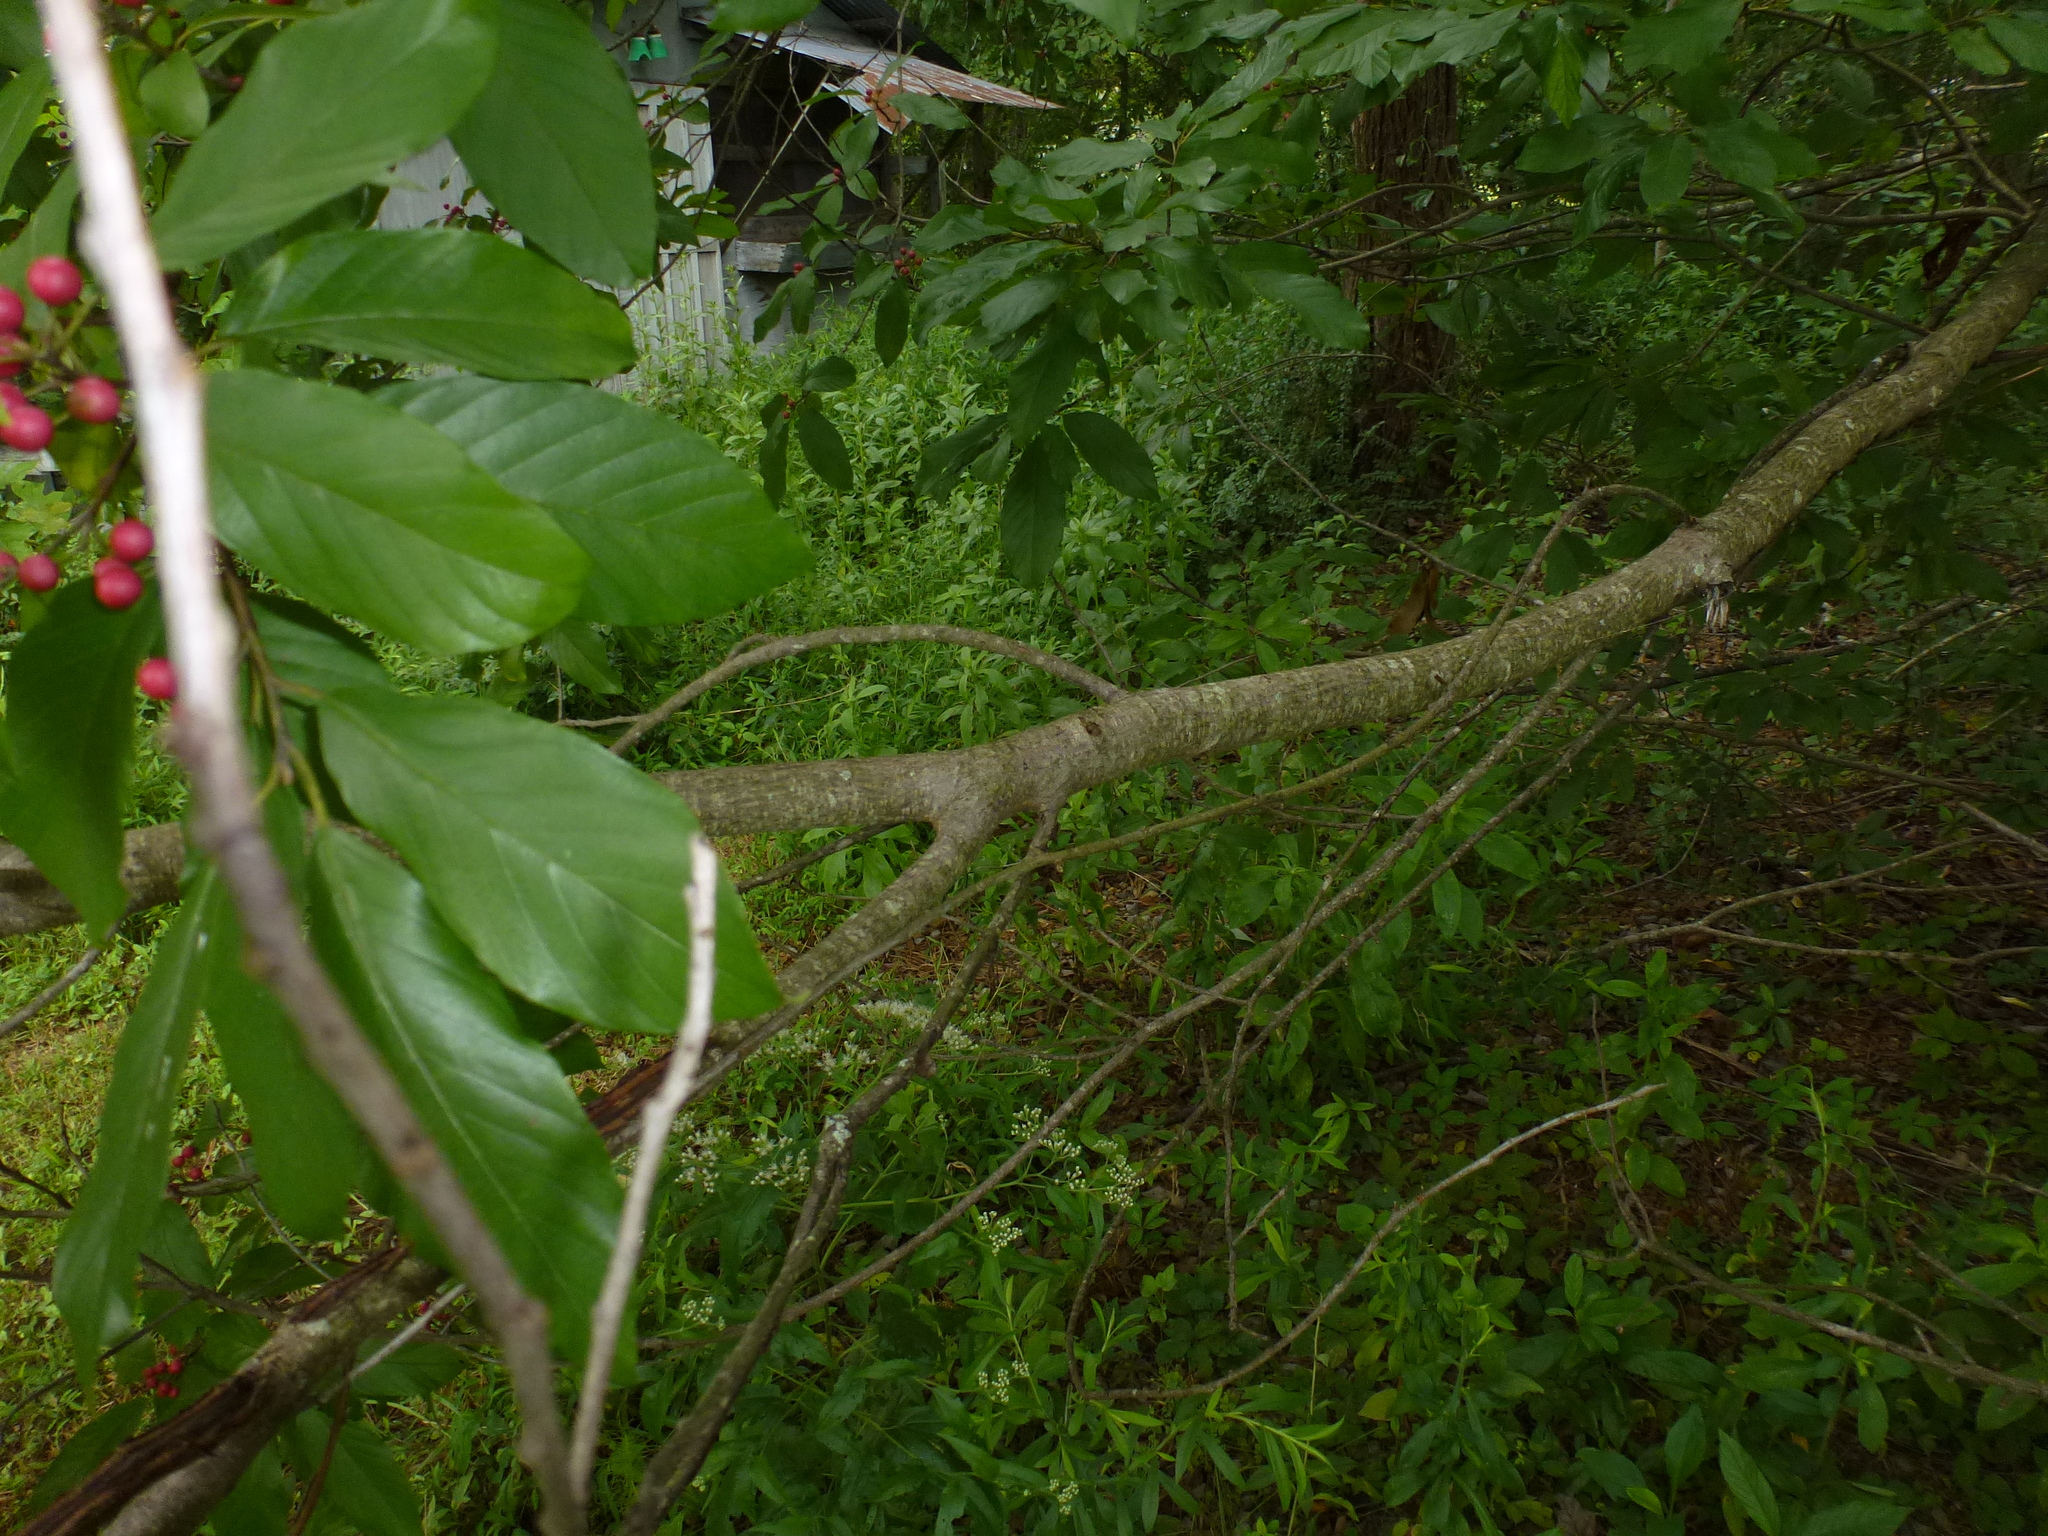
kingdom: Plantae
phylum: Tracheophyta
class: Magnoliopsida
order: Rosales
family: Rhamnaceae
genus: Frangula
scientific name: Frangula caroliniana
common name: Carolina buckthorn
